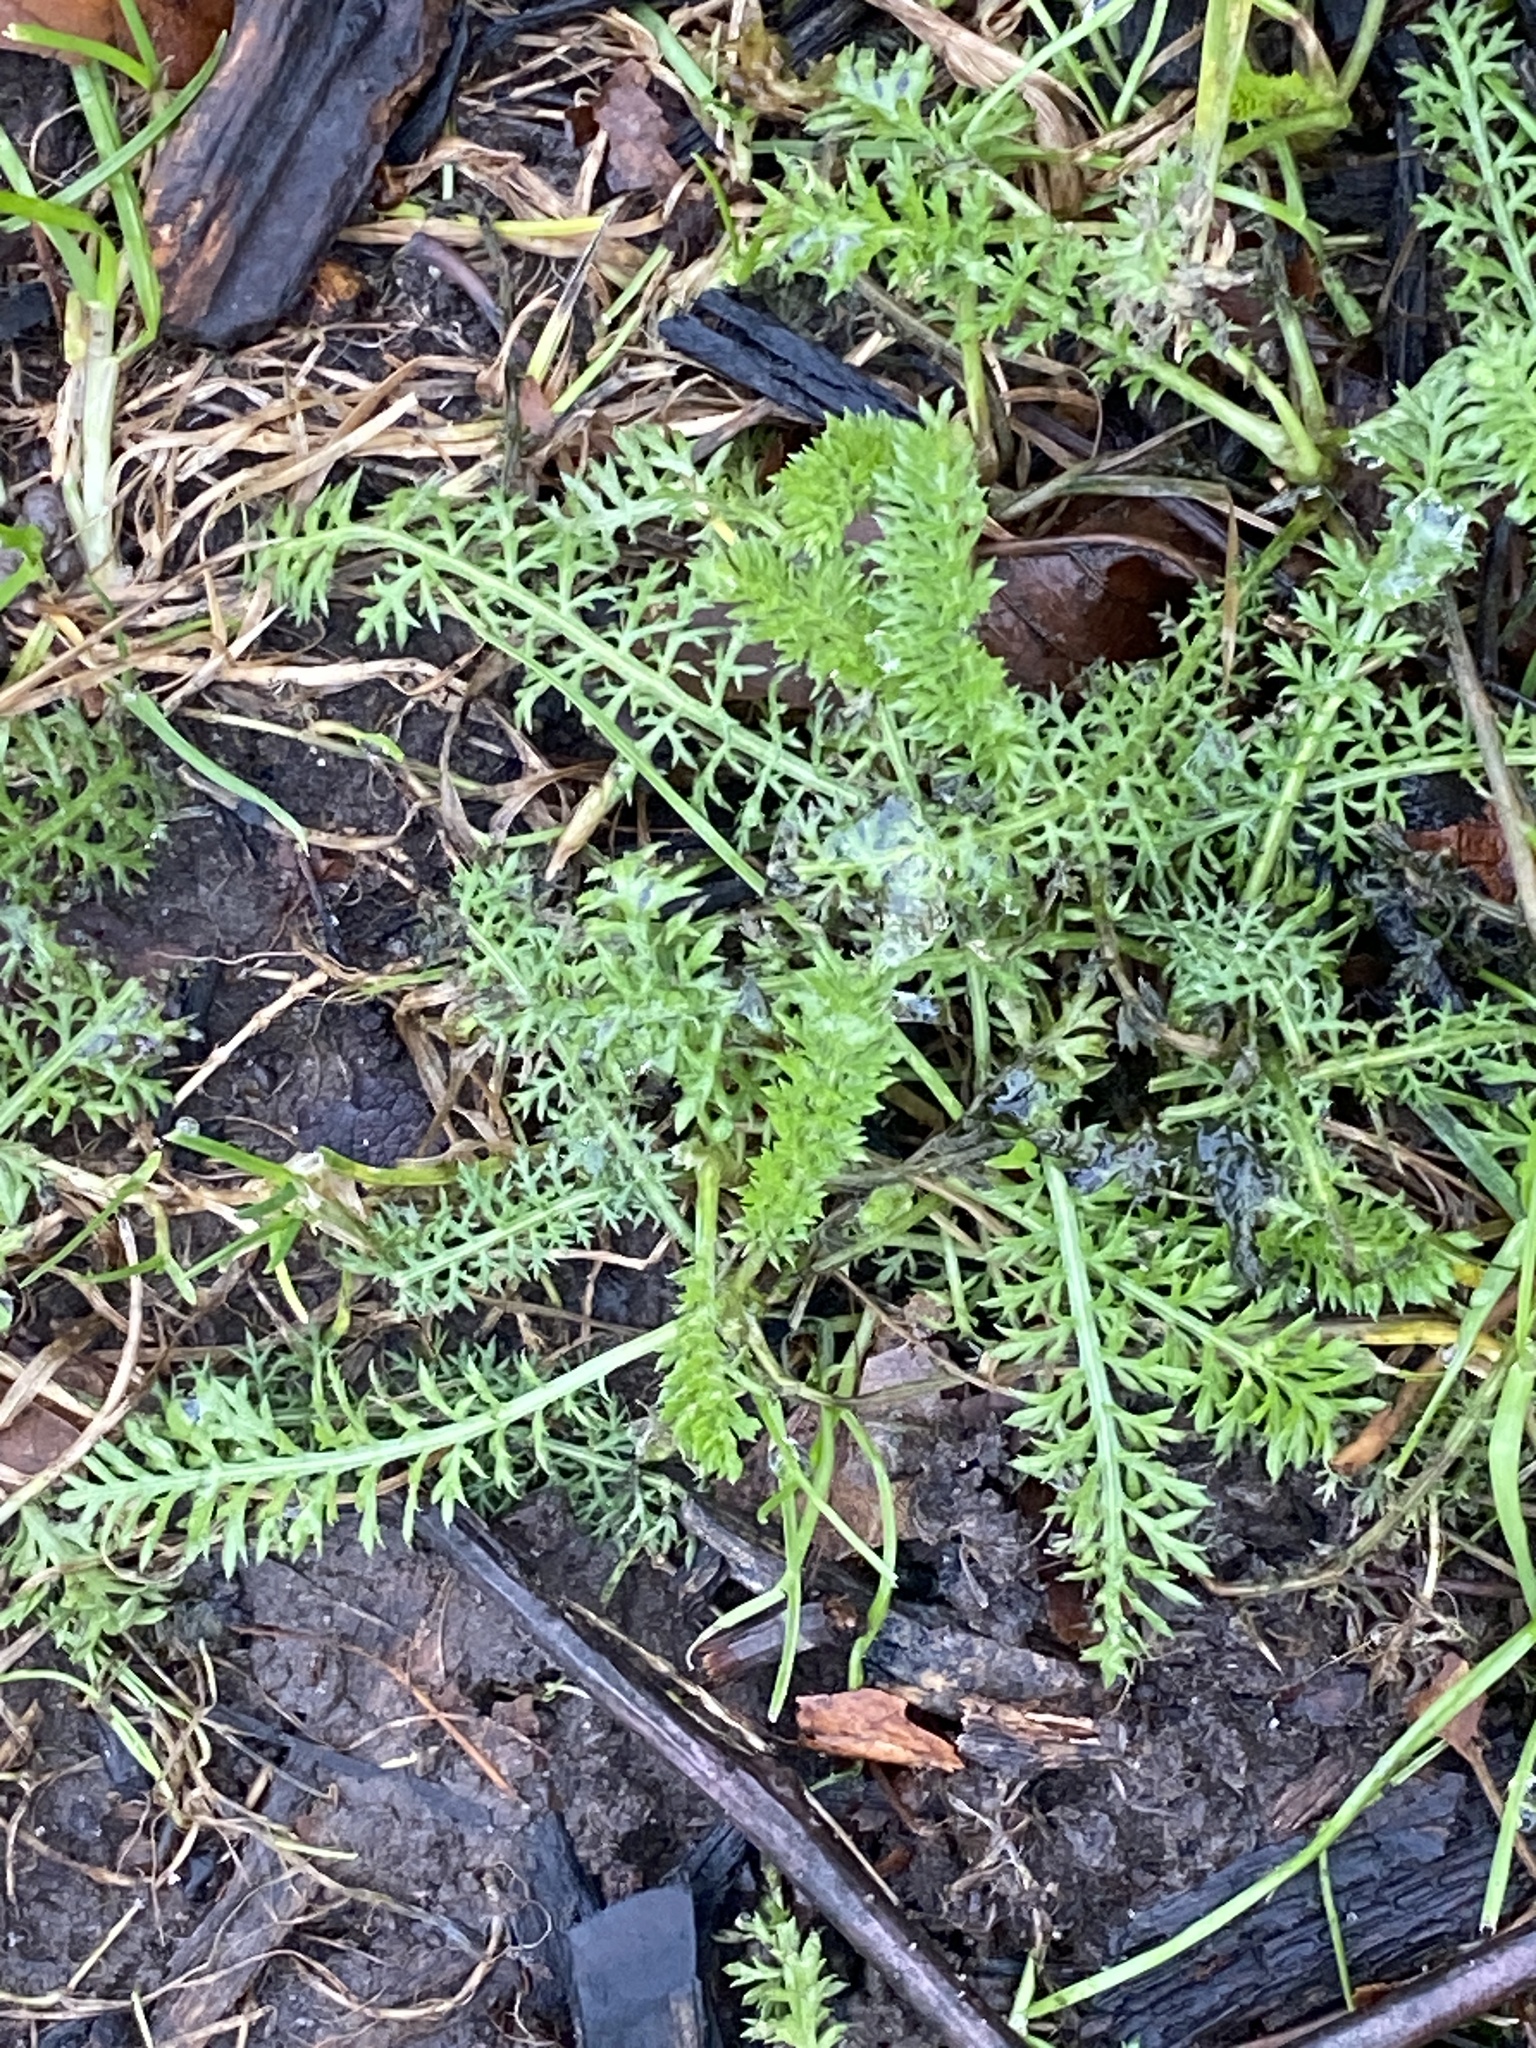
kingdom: Plantae
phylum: Tracheophyta
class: Magnoliopsida
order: Asterales
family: Asteraceae
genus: Achillea
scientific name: Achillea millefolium
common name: Yarrow
